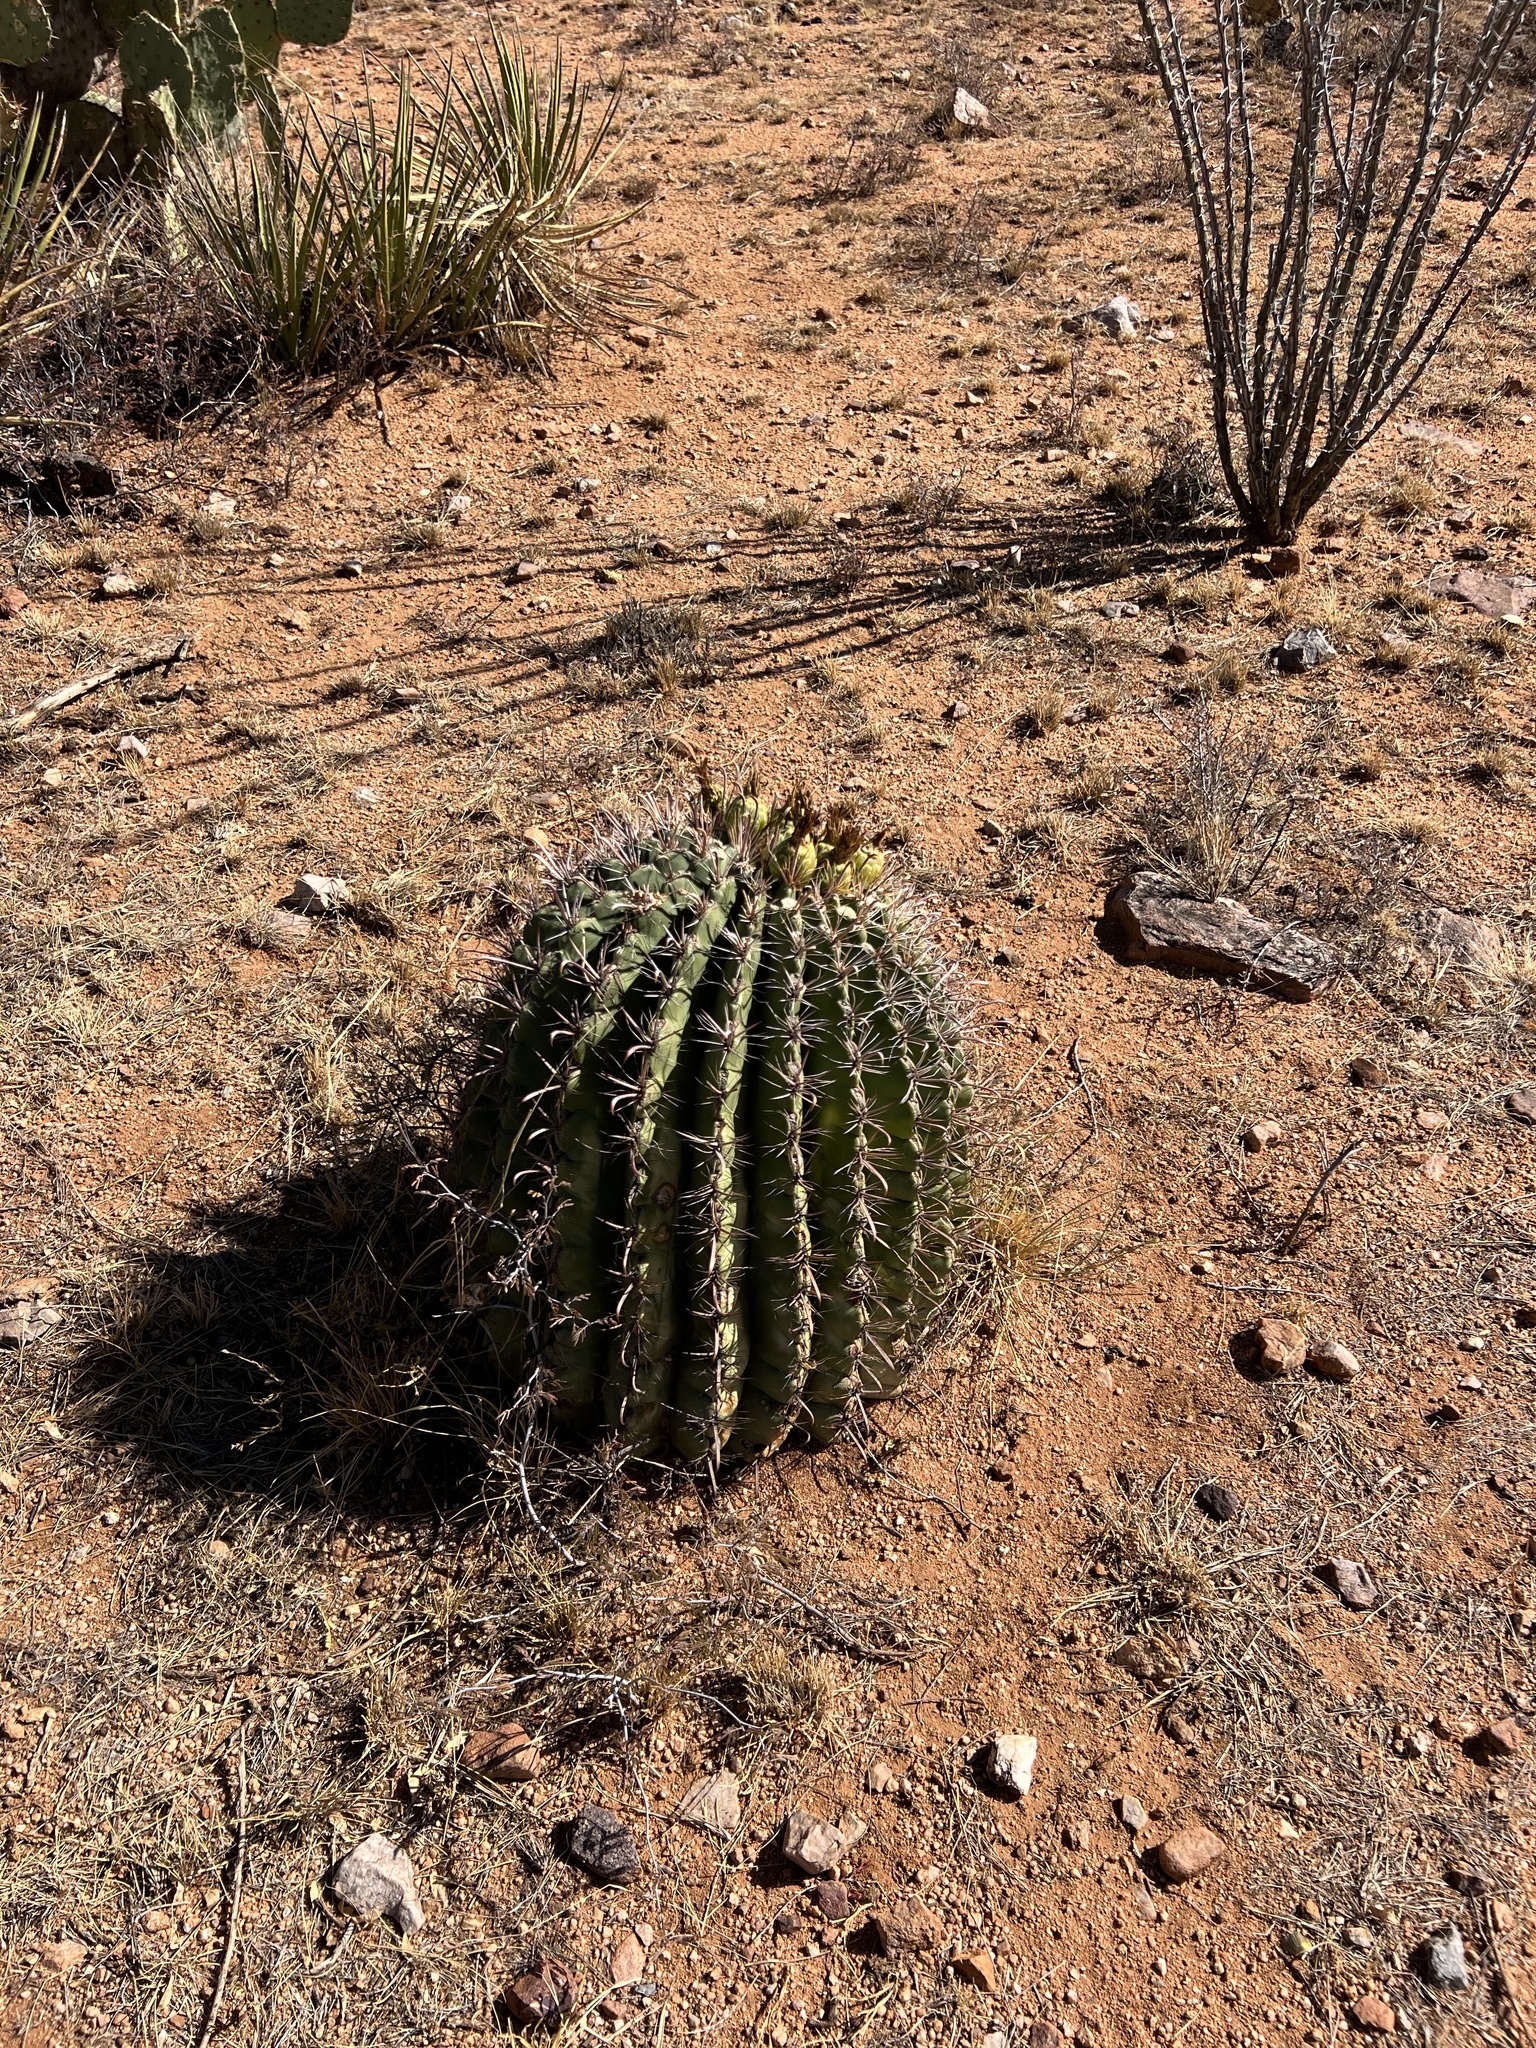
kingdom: Plantae
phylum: Tracheophyta
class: Magnoliopsida
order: Caryophyllales
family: Cactaceae
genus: Ferocactus
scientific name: Ferocactus wislizeni
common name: Candy barrel cactus
